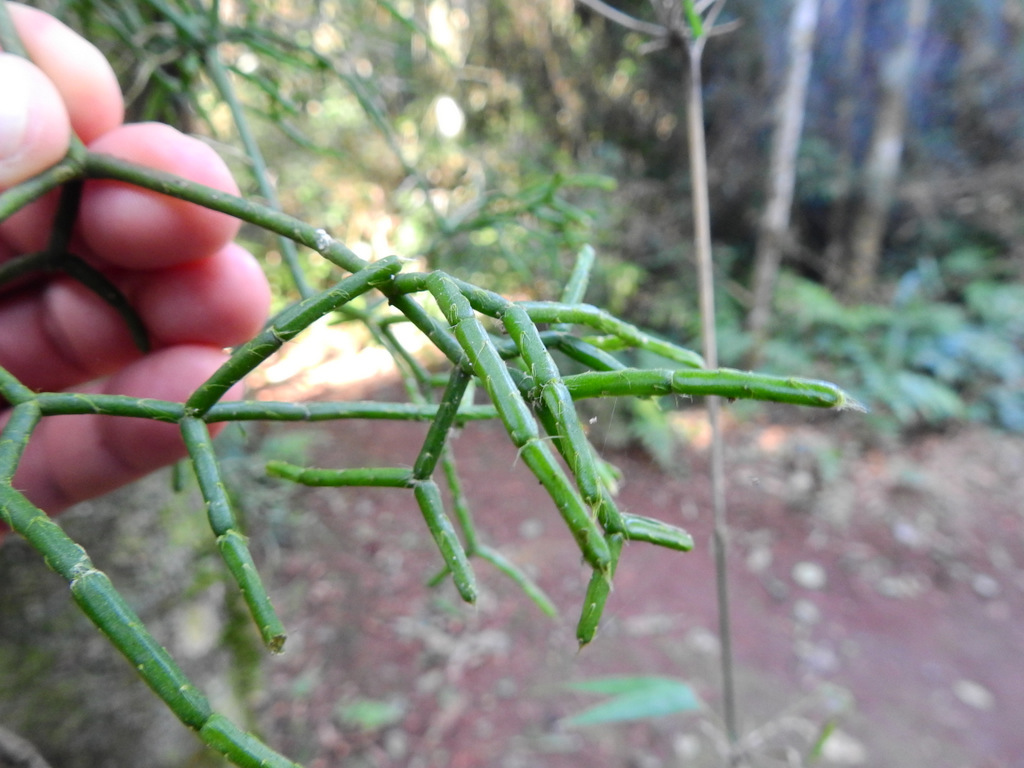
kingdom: Plantae
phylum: Tracheophyta
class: Magnoliopsida
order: Caryophyllales
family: Cactaceae
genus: Rhipsalis
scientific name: Rhipsalis cereuscula
